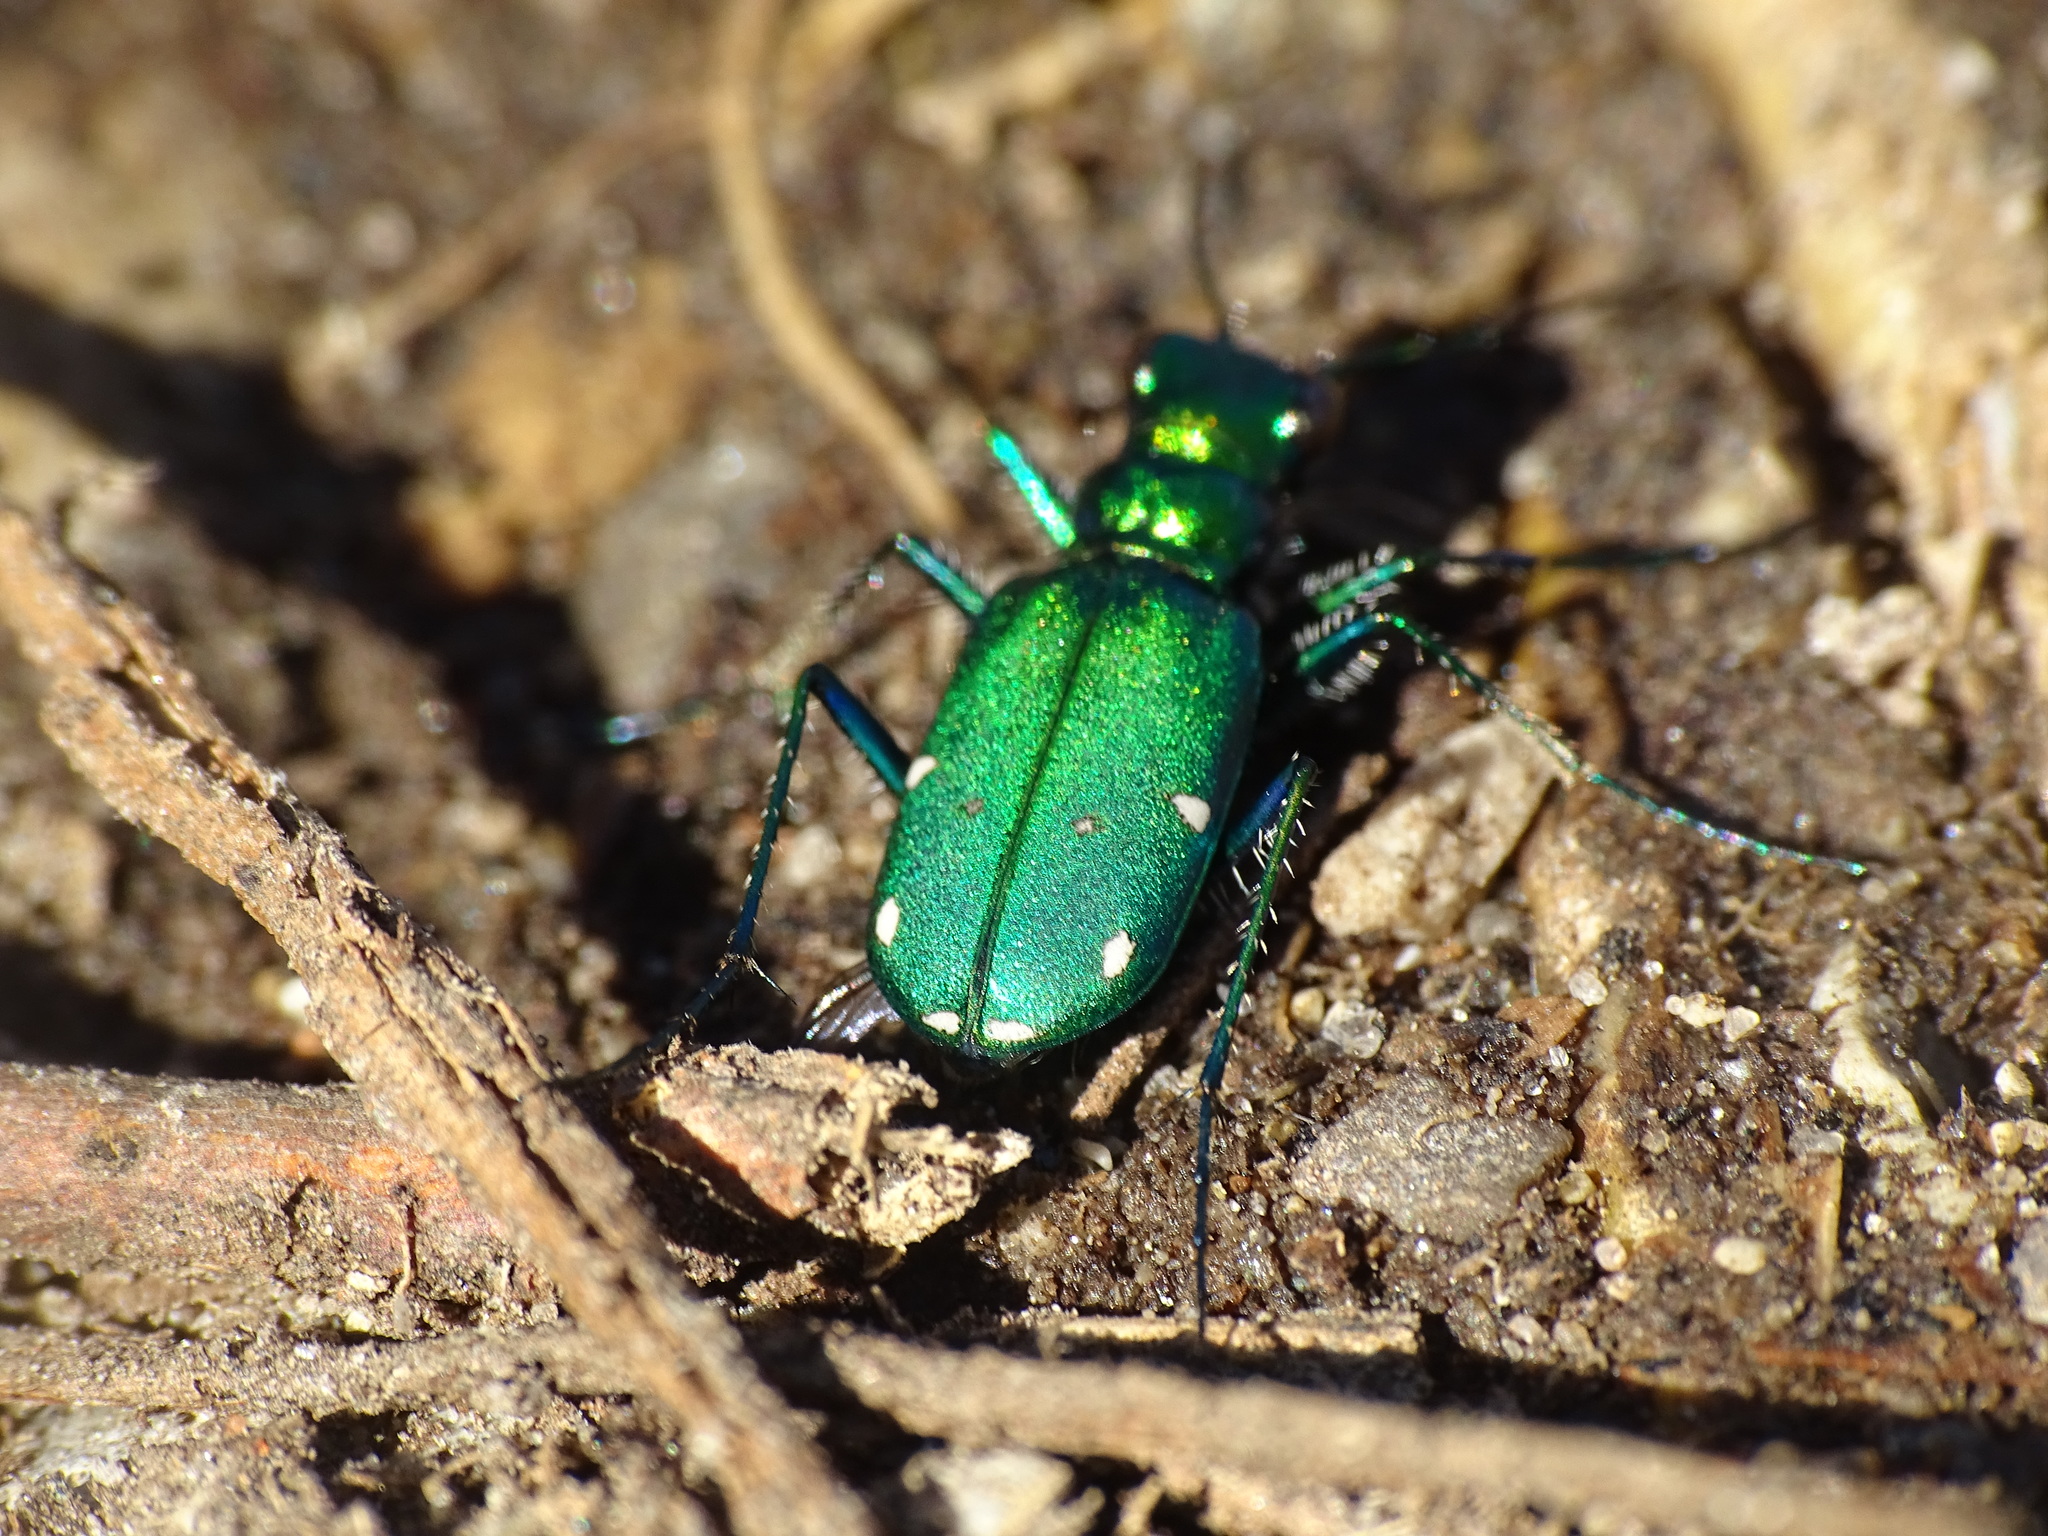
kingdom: Animalia
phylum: Arthropoda
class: Insecta
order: Coleoptera
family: Carabidae
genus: Cicindela
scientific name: Cicindela sexguttata
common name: Six-spotted tiger beetle
